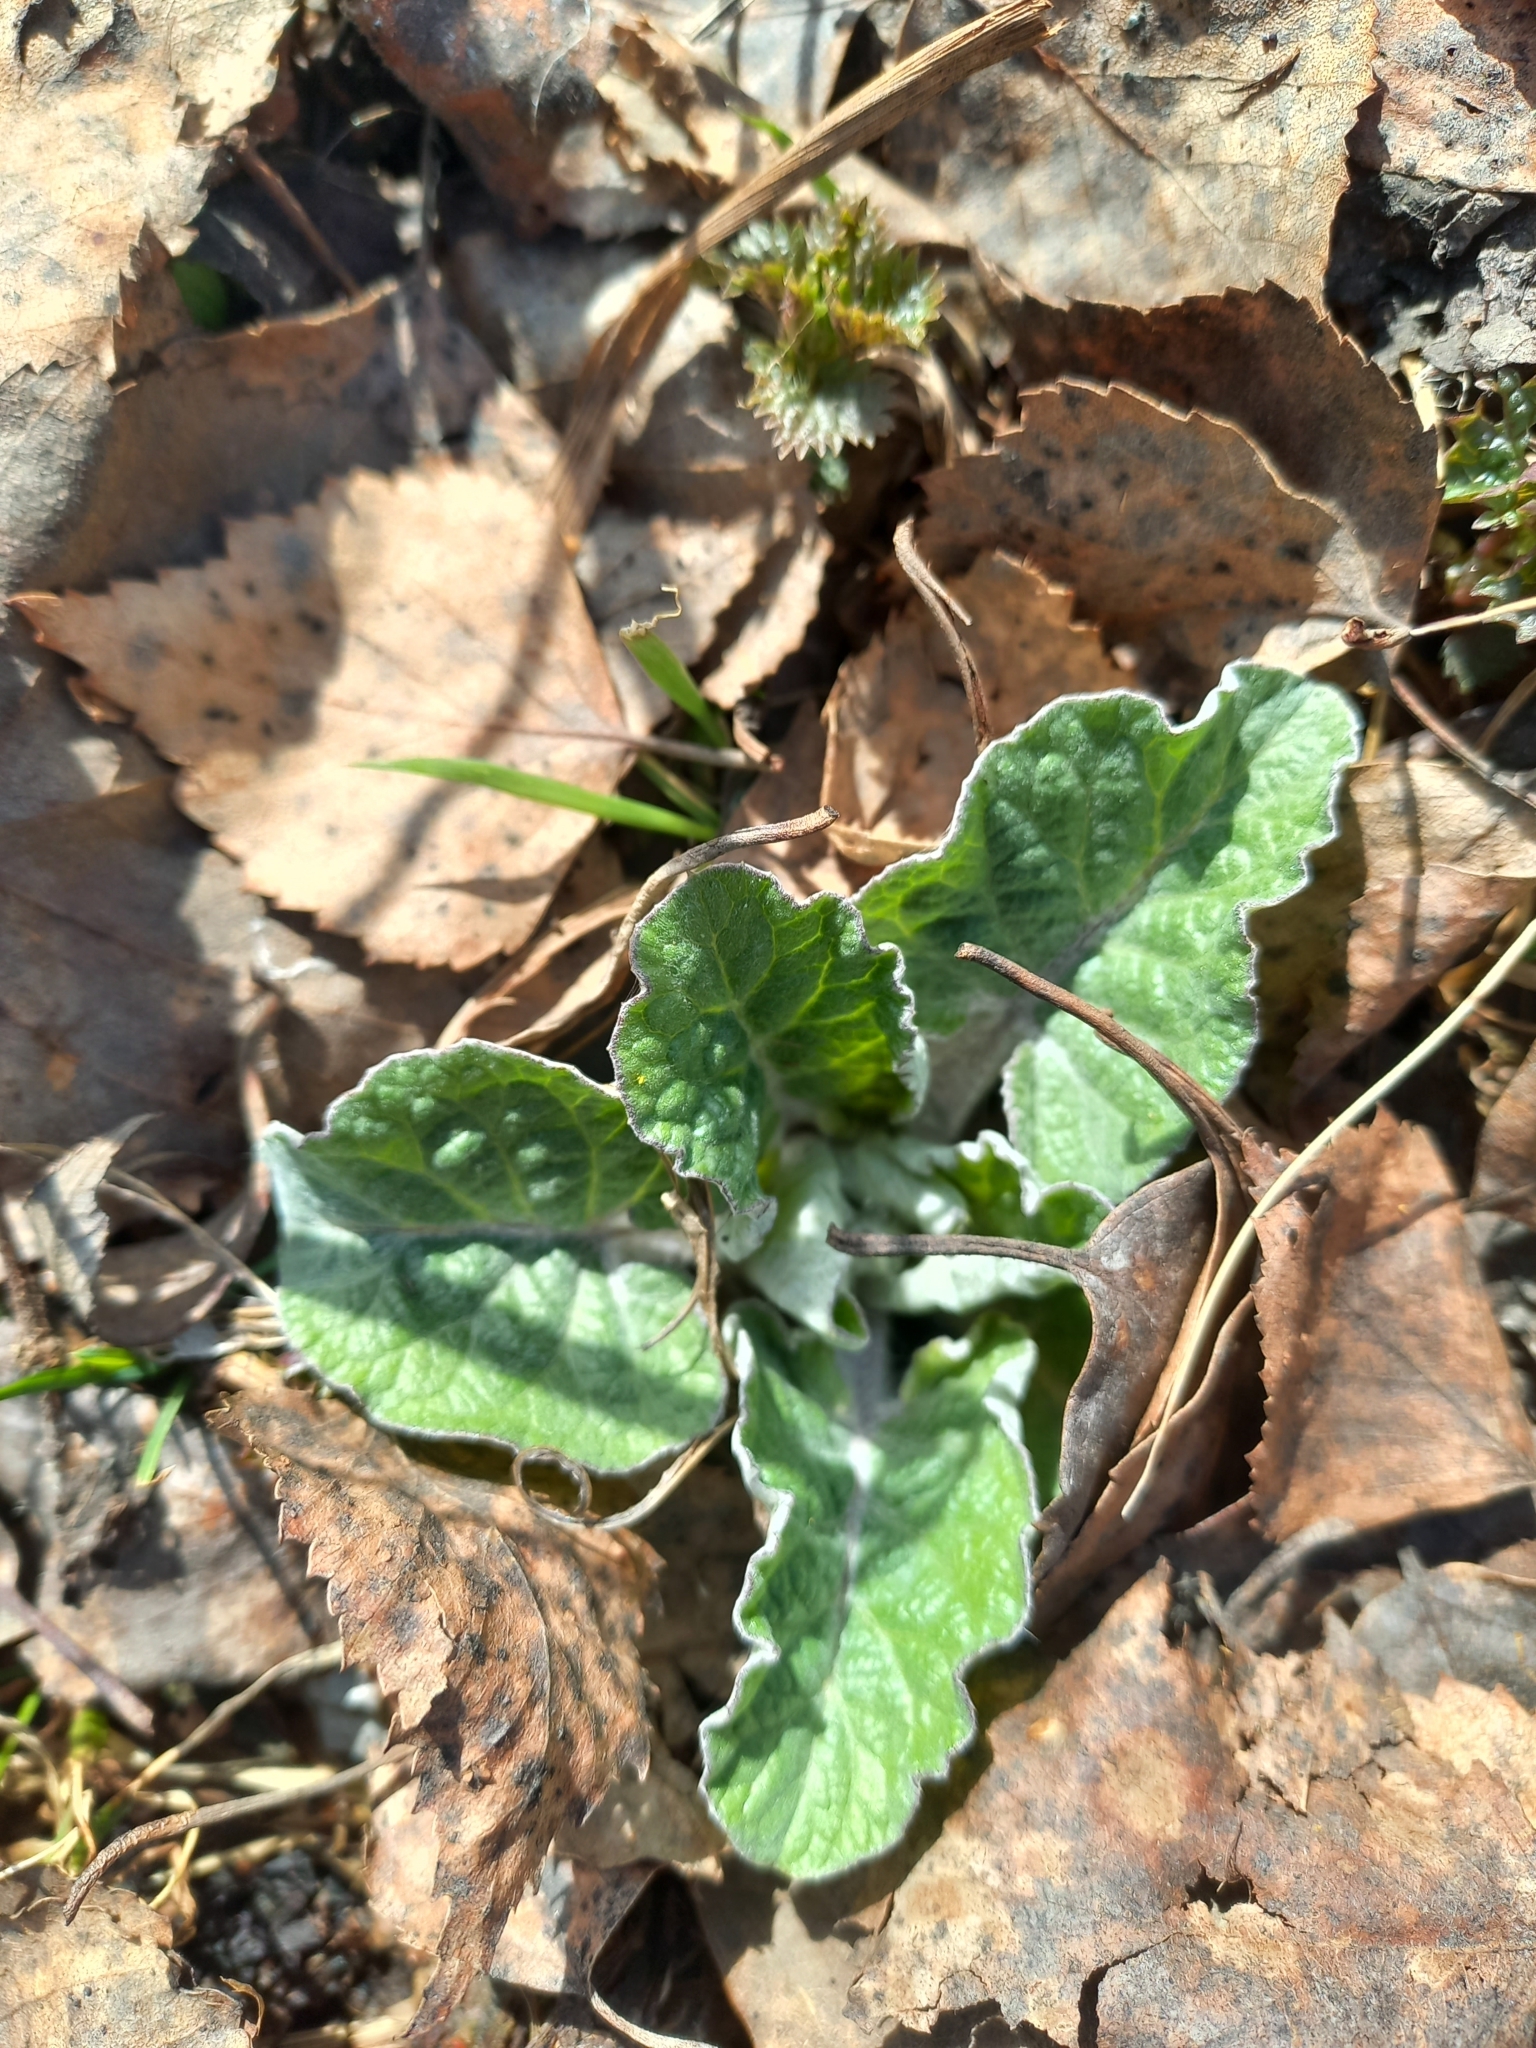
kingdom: Plantae
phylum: Tracheophyta
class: Magnoliopsida
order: Asterales
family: Asteraceae
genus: Arctium
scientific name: Arctium tomentosum
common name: Woolly burdock
